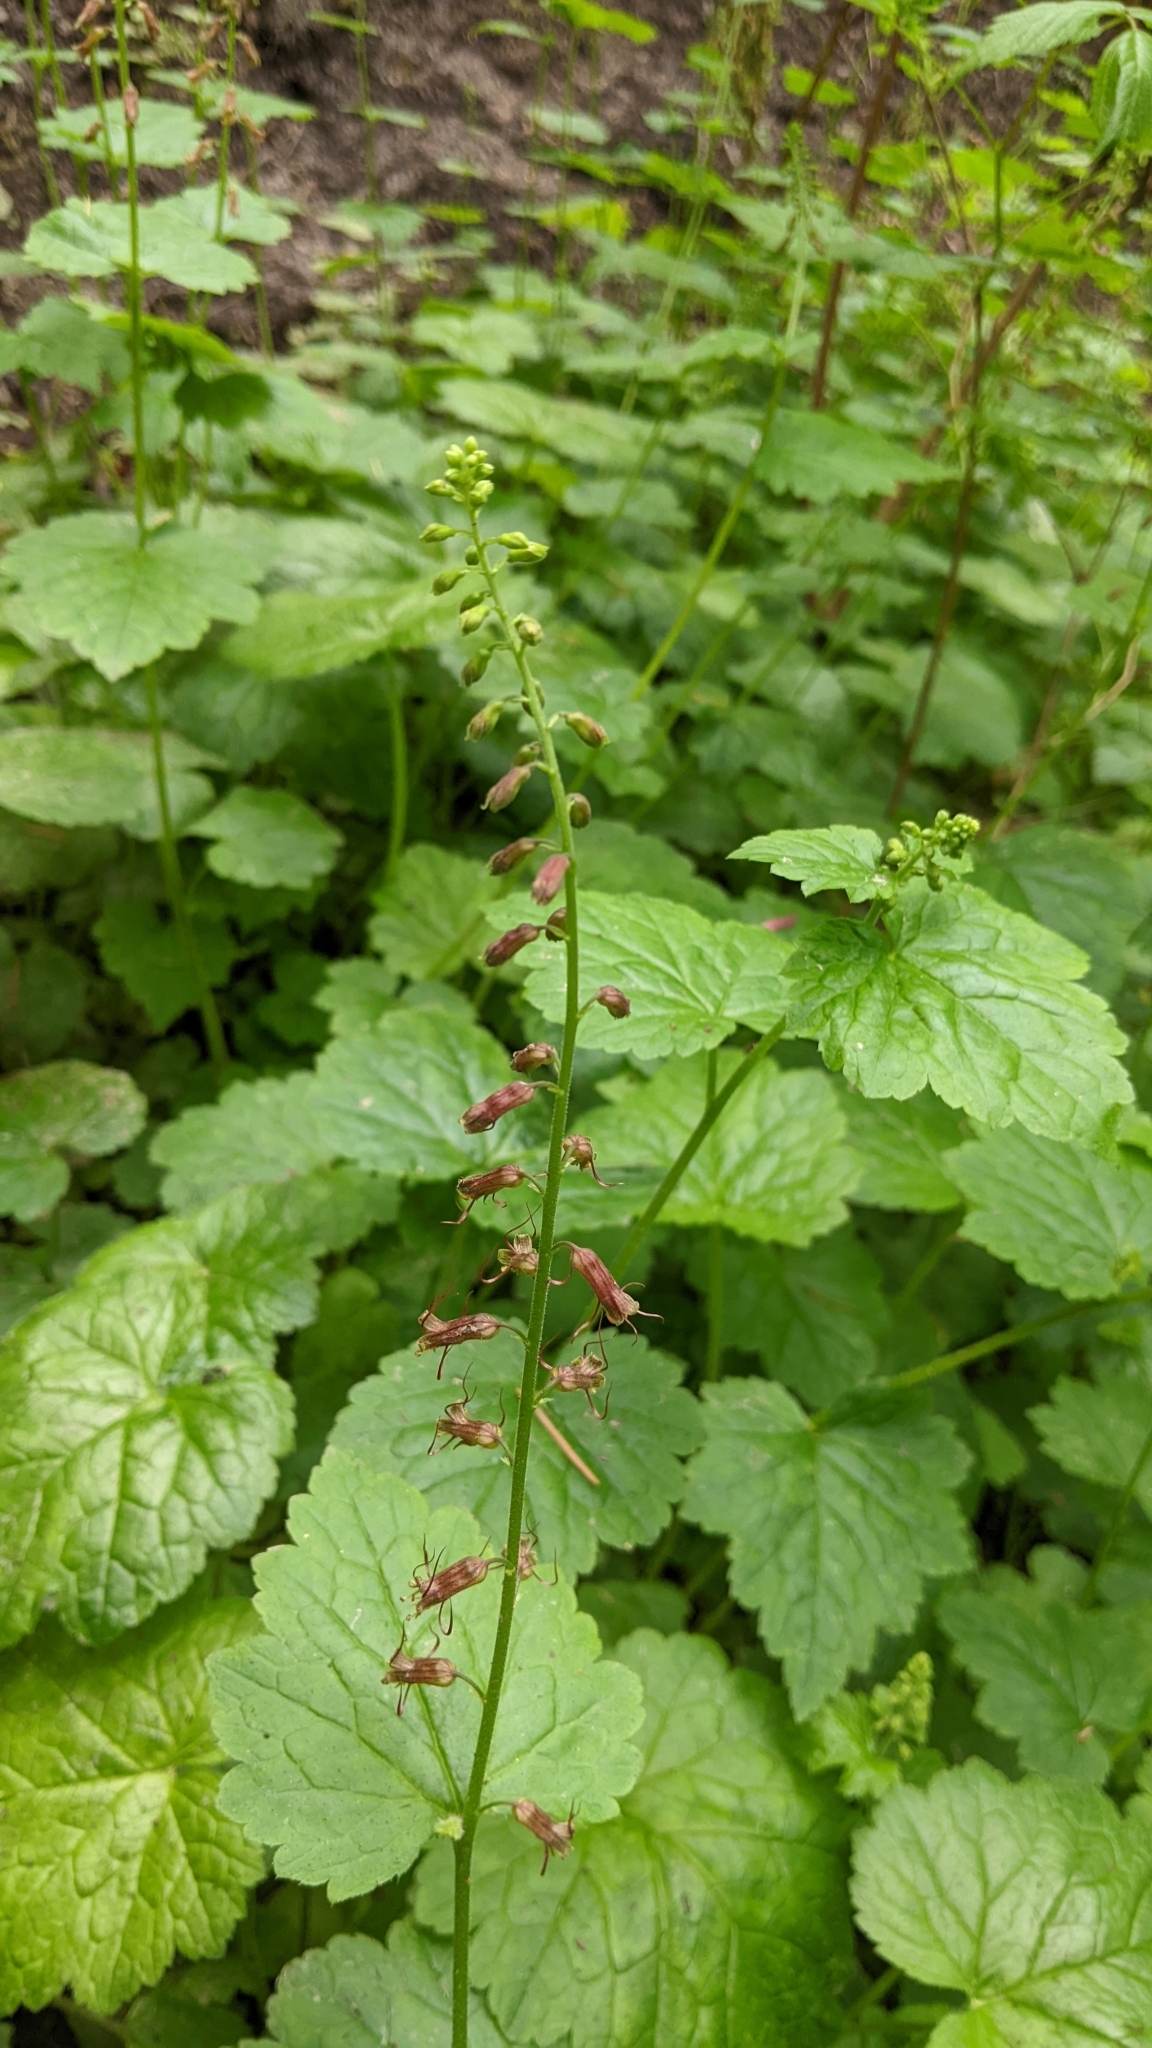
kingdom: Plantae
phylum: Tracheophyta
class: Magnoliopsida
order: Saxifragales
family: Saxifragaceae
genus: Tolmiea
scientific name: Tolmiea menziesii
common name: Pick-a-back-plant
